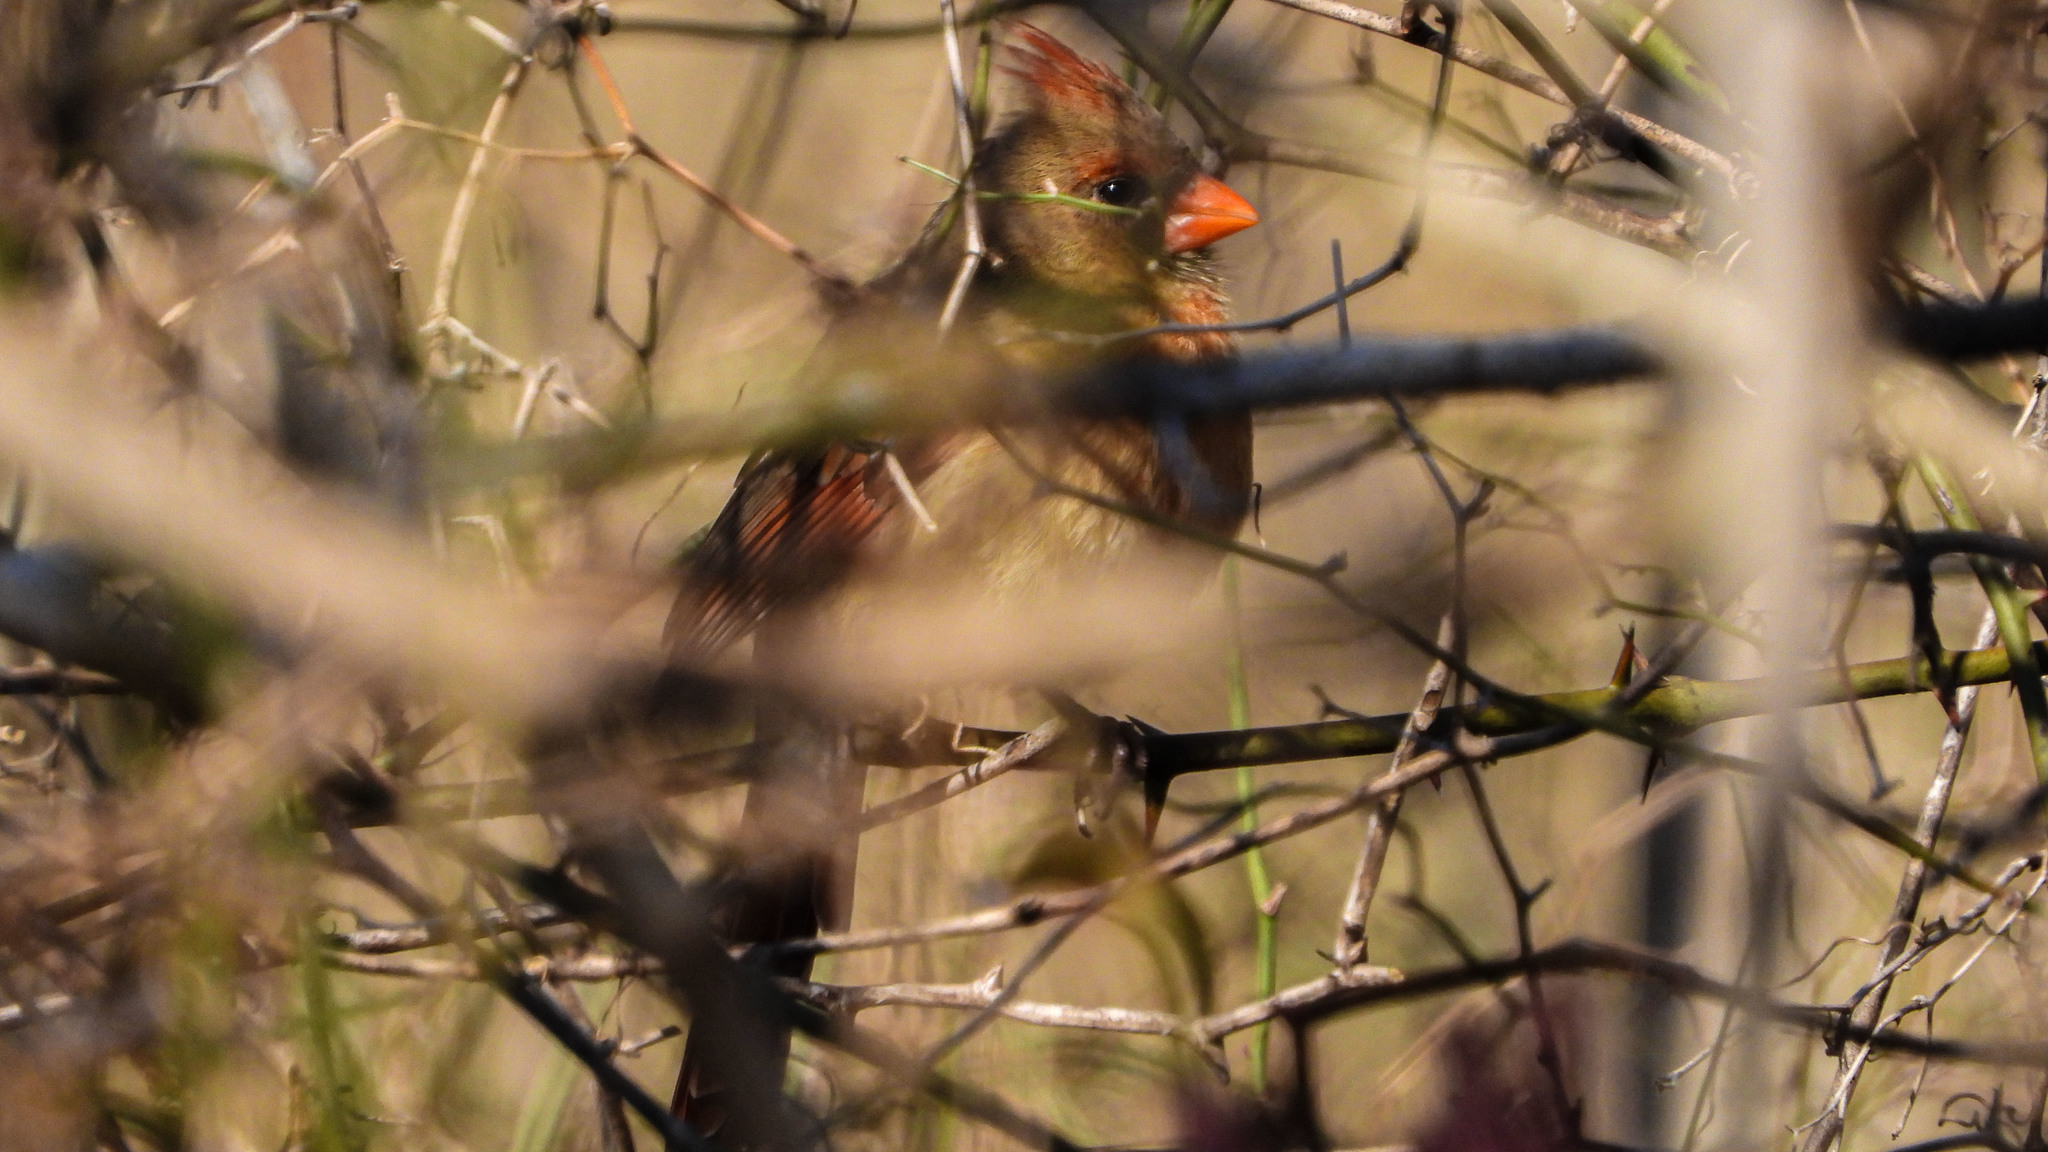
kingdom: Animalia
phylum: Chordata
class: Aves
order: Passeriformes
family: Cardinalidae
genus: Cardinalis
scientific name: Cardinalis cardinalis
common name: Northern cardinal
